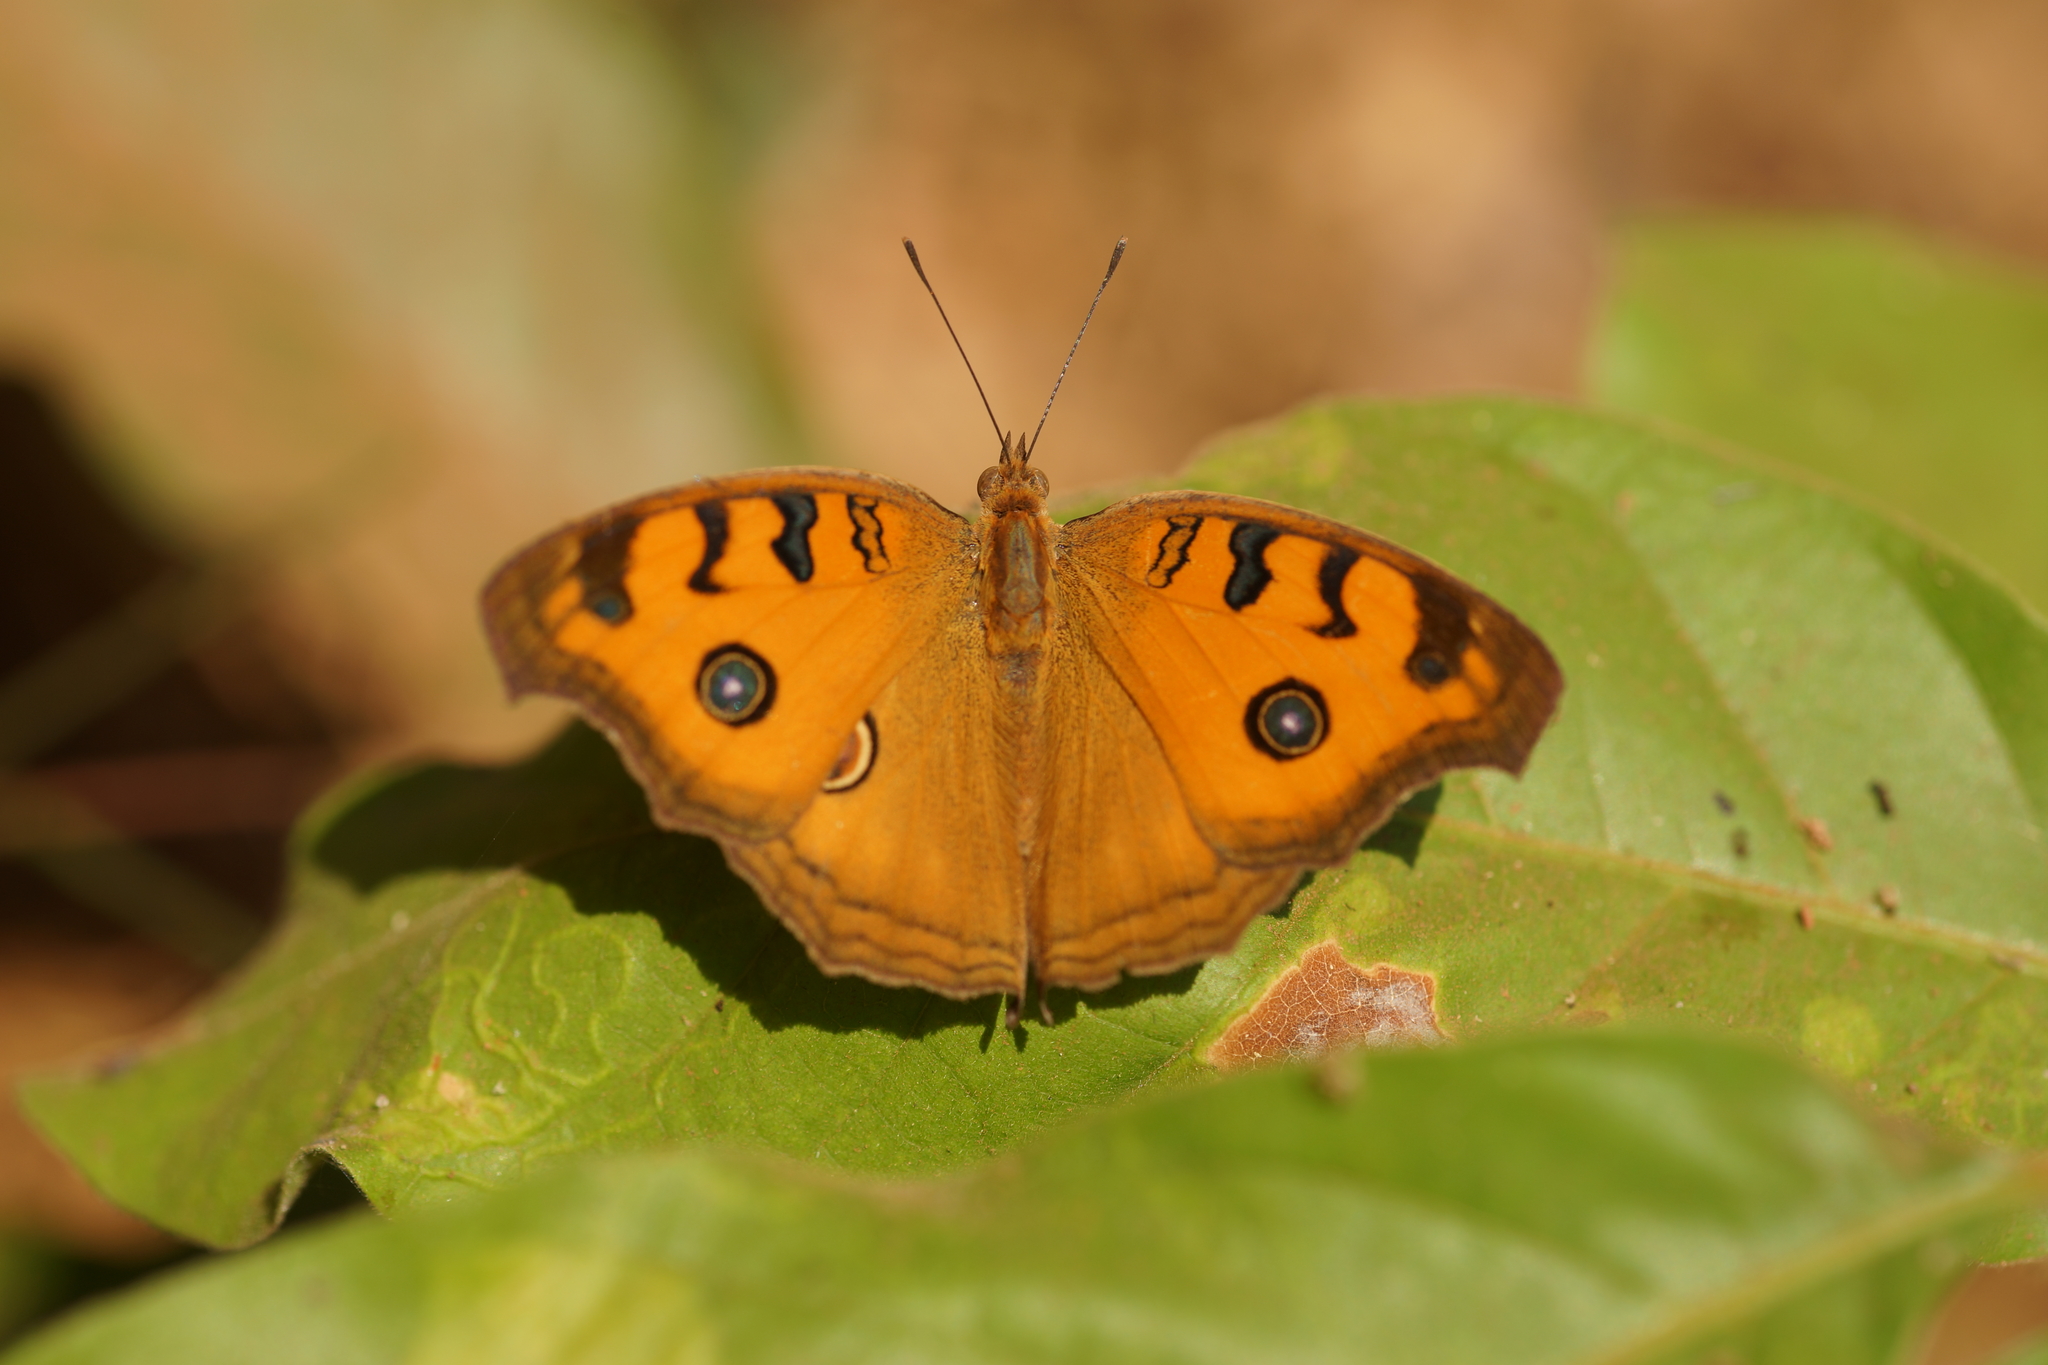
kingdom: Animalia
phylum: Arthropoda
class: Insecta
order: Lepidoptera
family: Nymphalidae
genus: Junonia
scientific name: Junonia almana
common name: Peacock pansy
